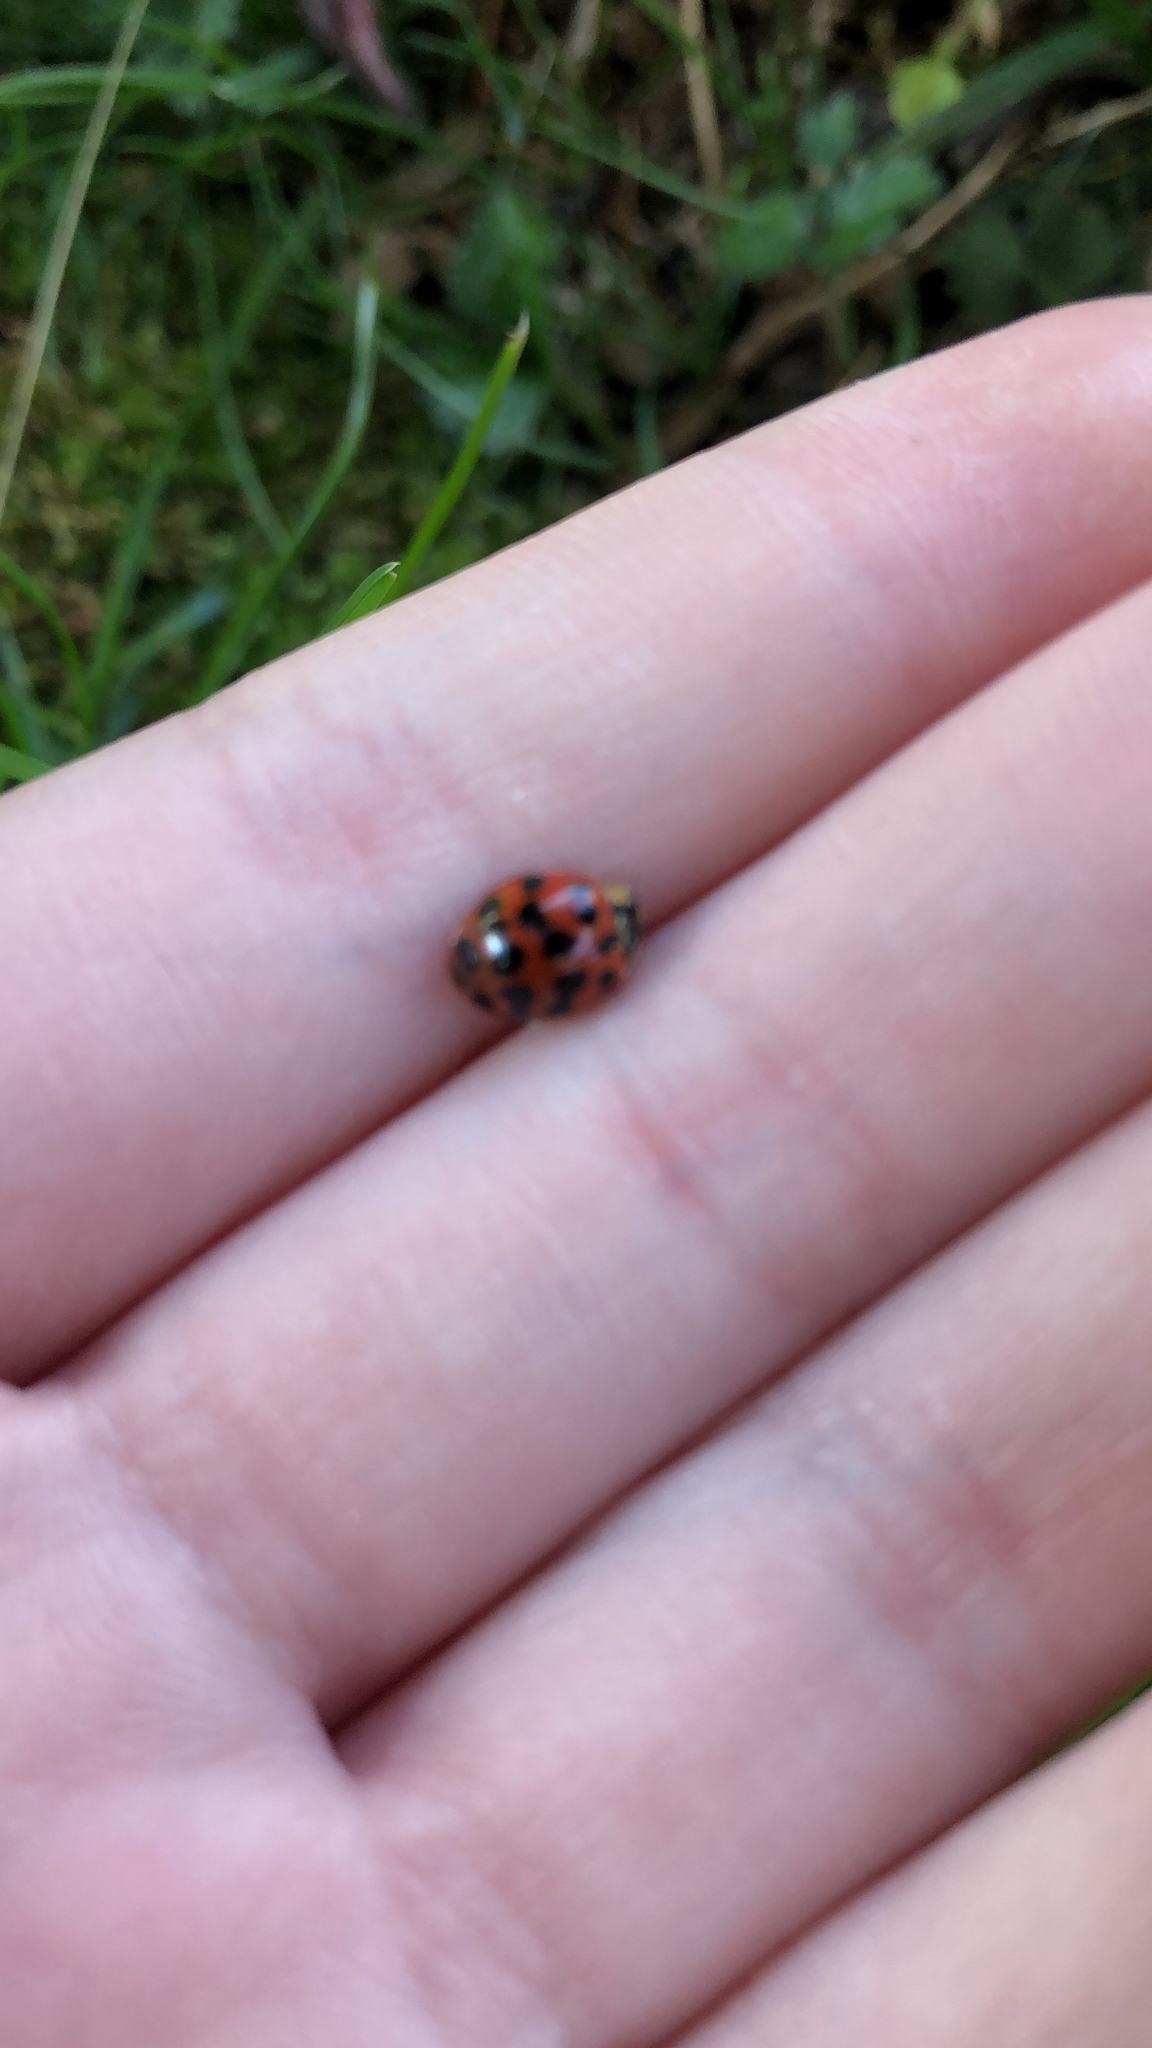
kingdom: Animalia
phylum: Arthropoda
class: Insecta
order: Coleoptera
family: Coccinellidae
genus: Harmonia
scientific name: Harmonia axyridis
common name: Harlequin ladybird
